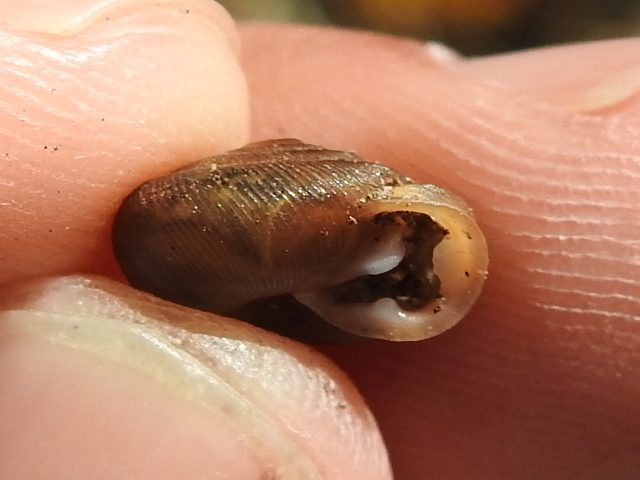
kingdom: Animalia
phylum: Mollusca
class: Gastropoda
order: Stylommatophora
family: Polygyridae
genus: Triodopsis
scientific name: Triodopsis hopetonensis
